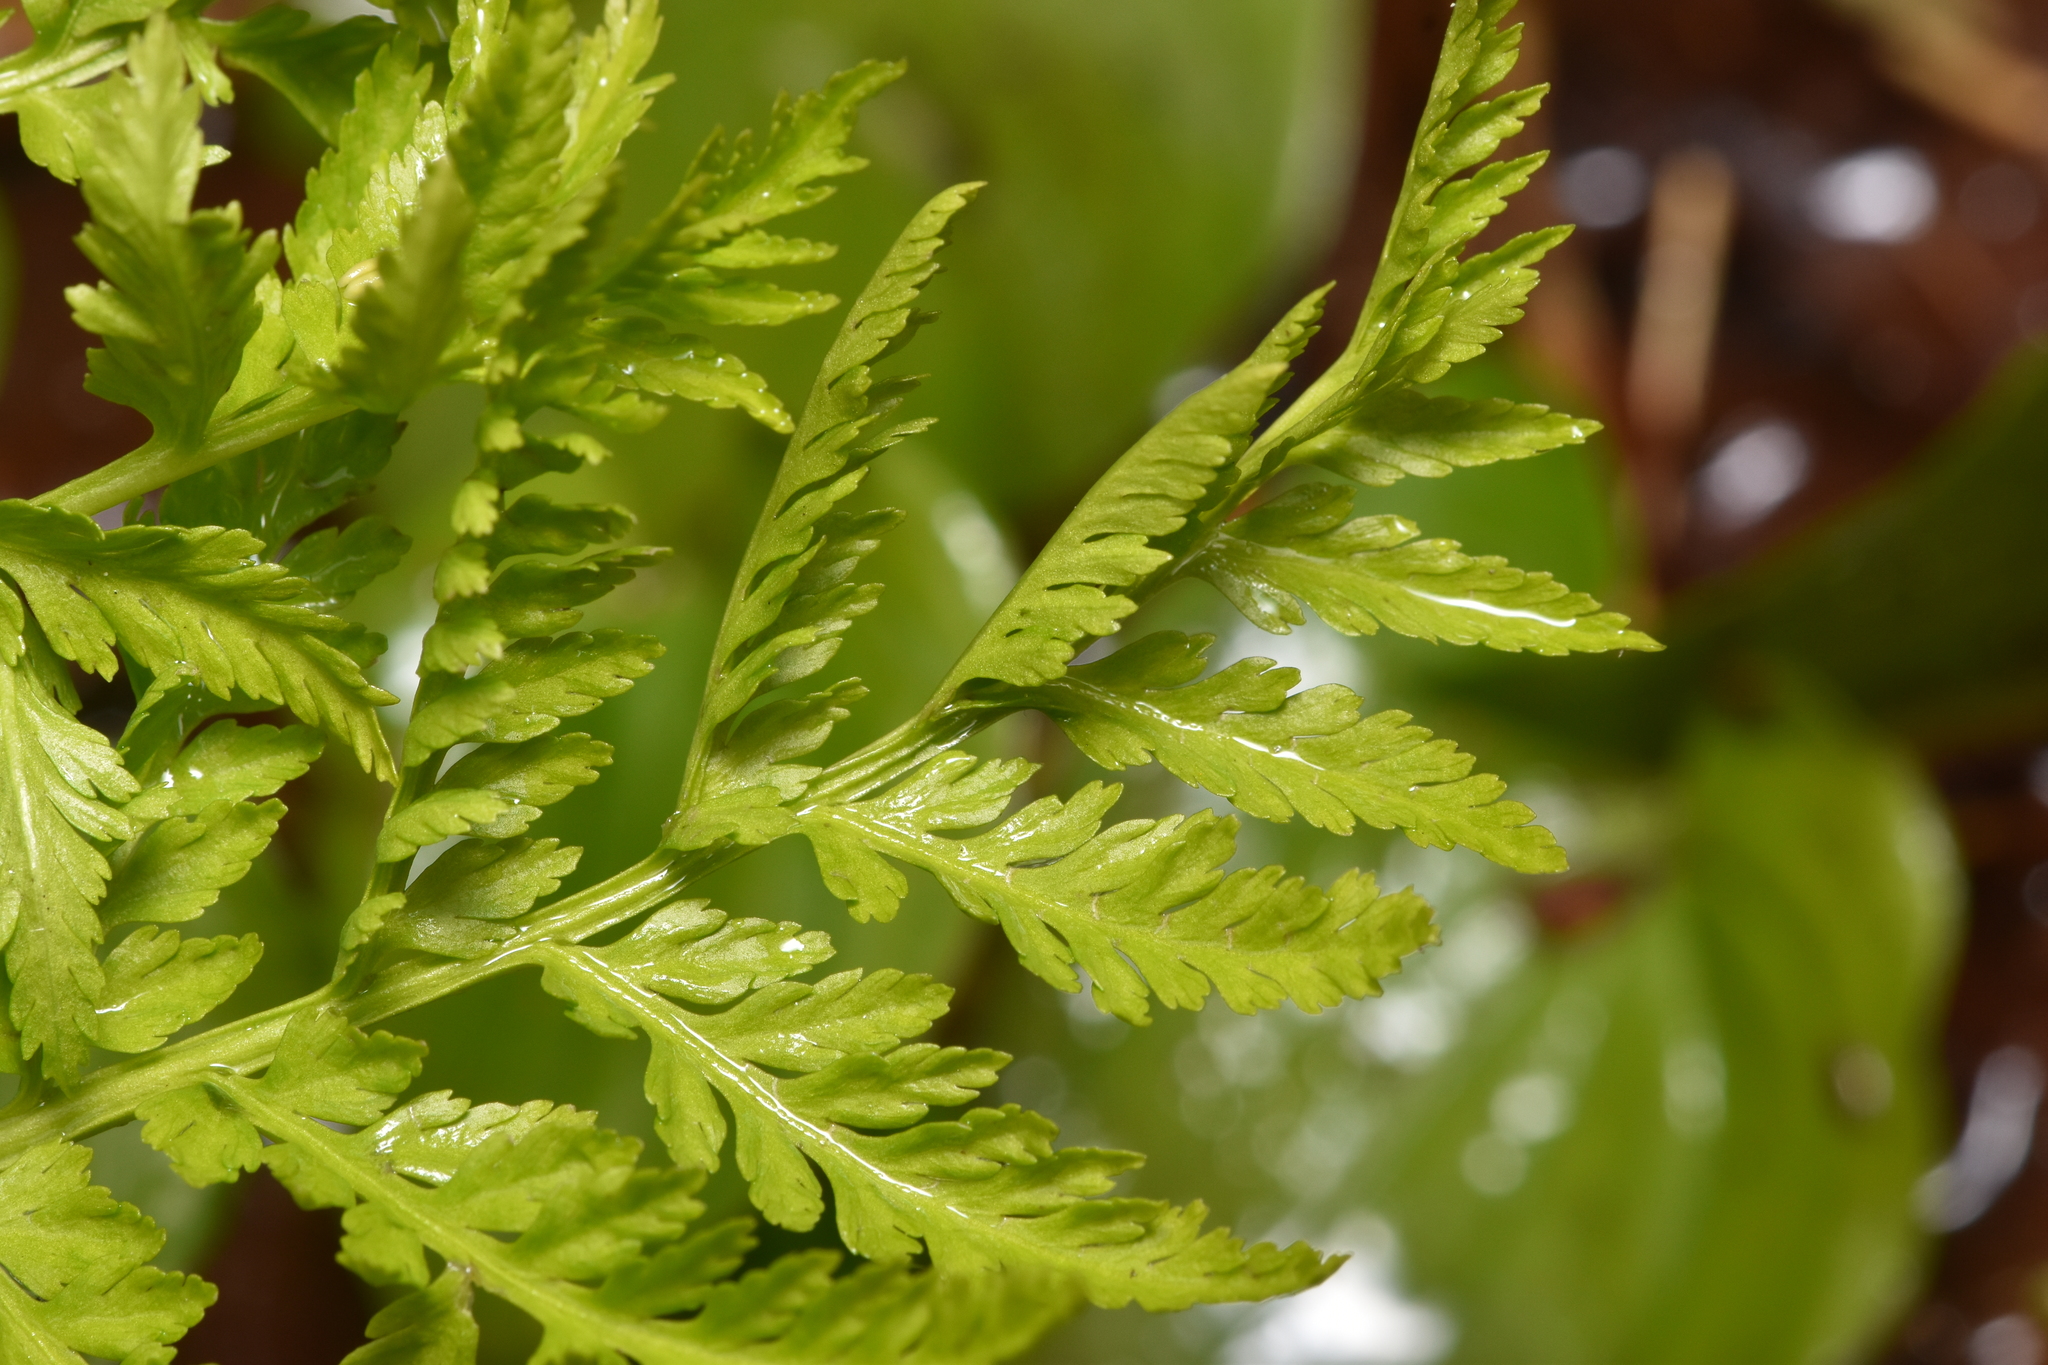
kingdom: Plantae
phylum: Tracheophyta
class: Polypodiopsida
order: Ophioglossales
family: Ophioglossaceae
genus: Botrypus
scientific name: Botrypus virginianus
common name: Common grapefern
